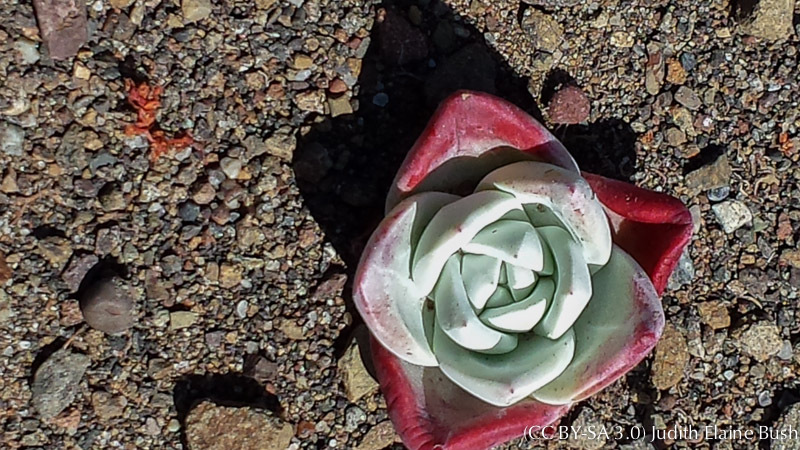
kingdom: Plantae
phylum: Tracheophyta
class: Magnoliopsida
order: Saxifragales
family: Crassulaceae
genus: Dudleya
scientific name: Dudleya farinosa
